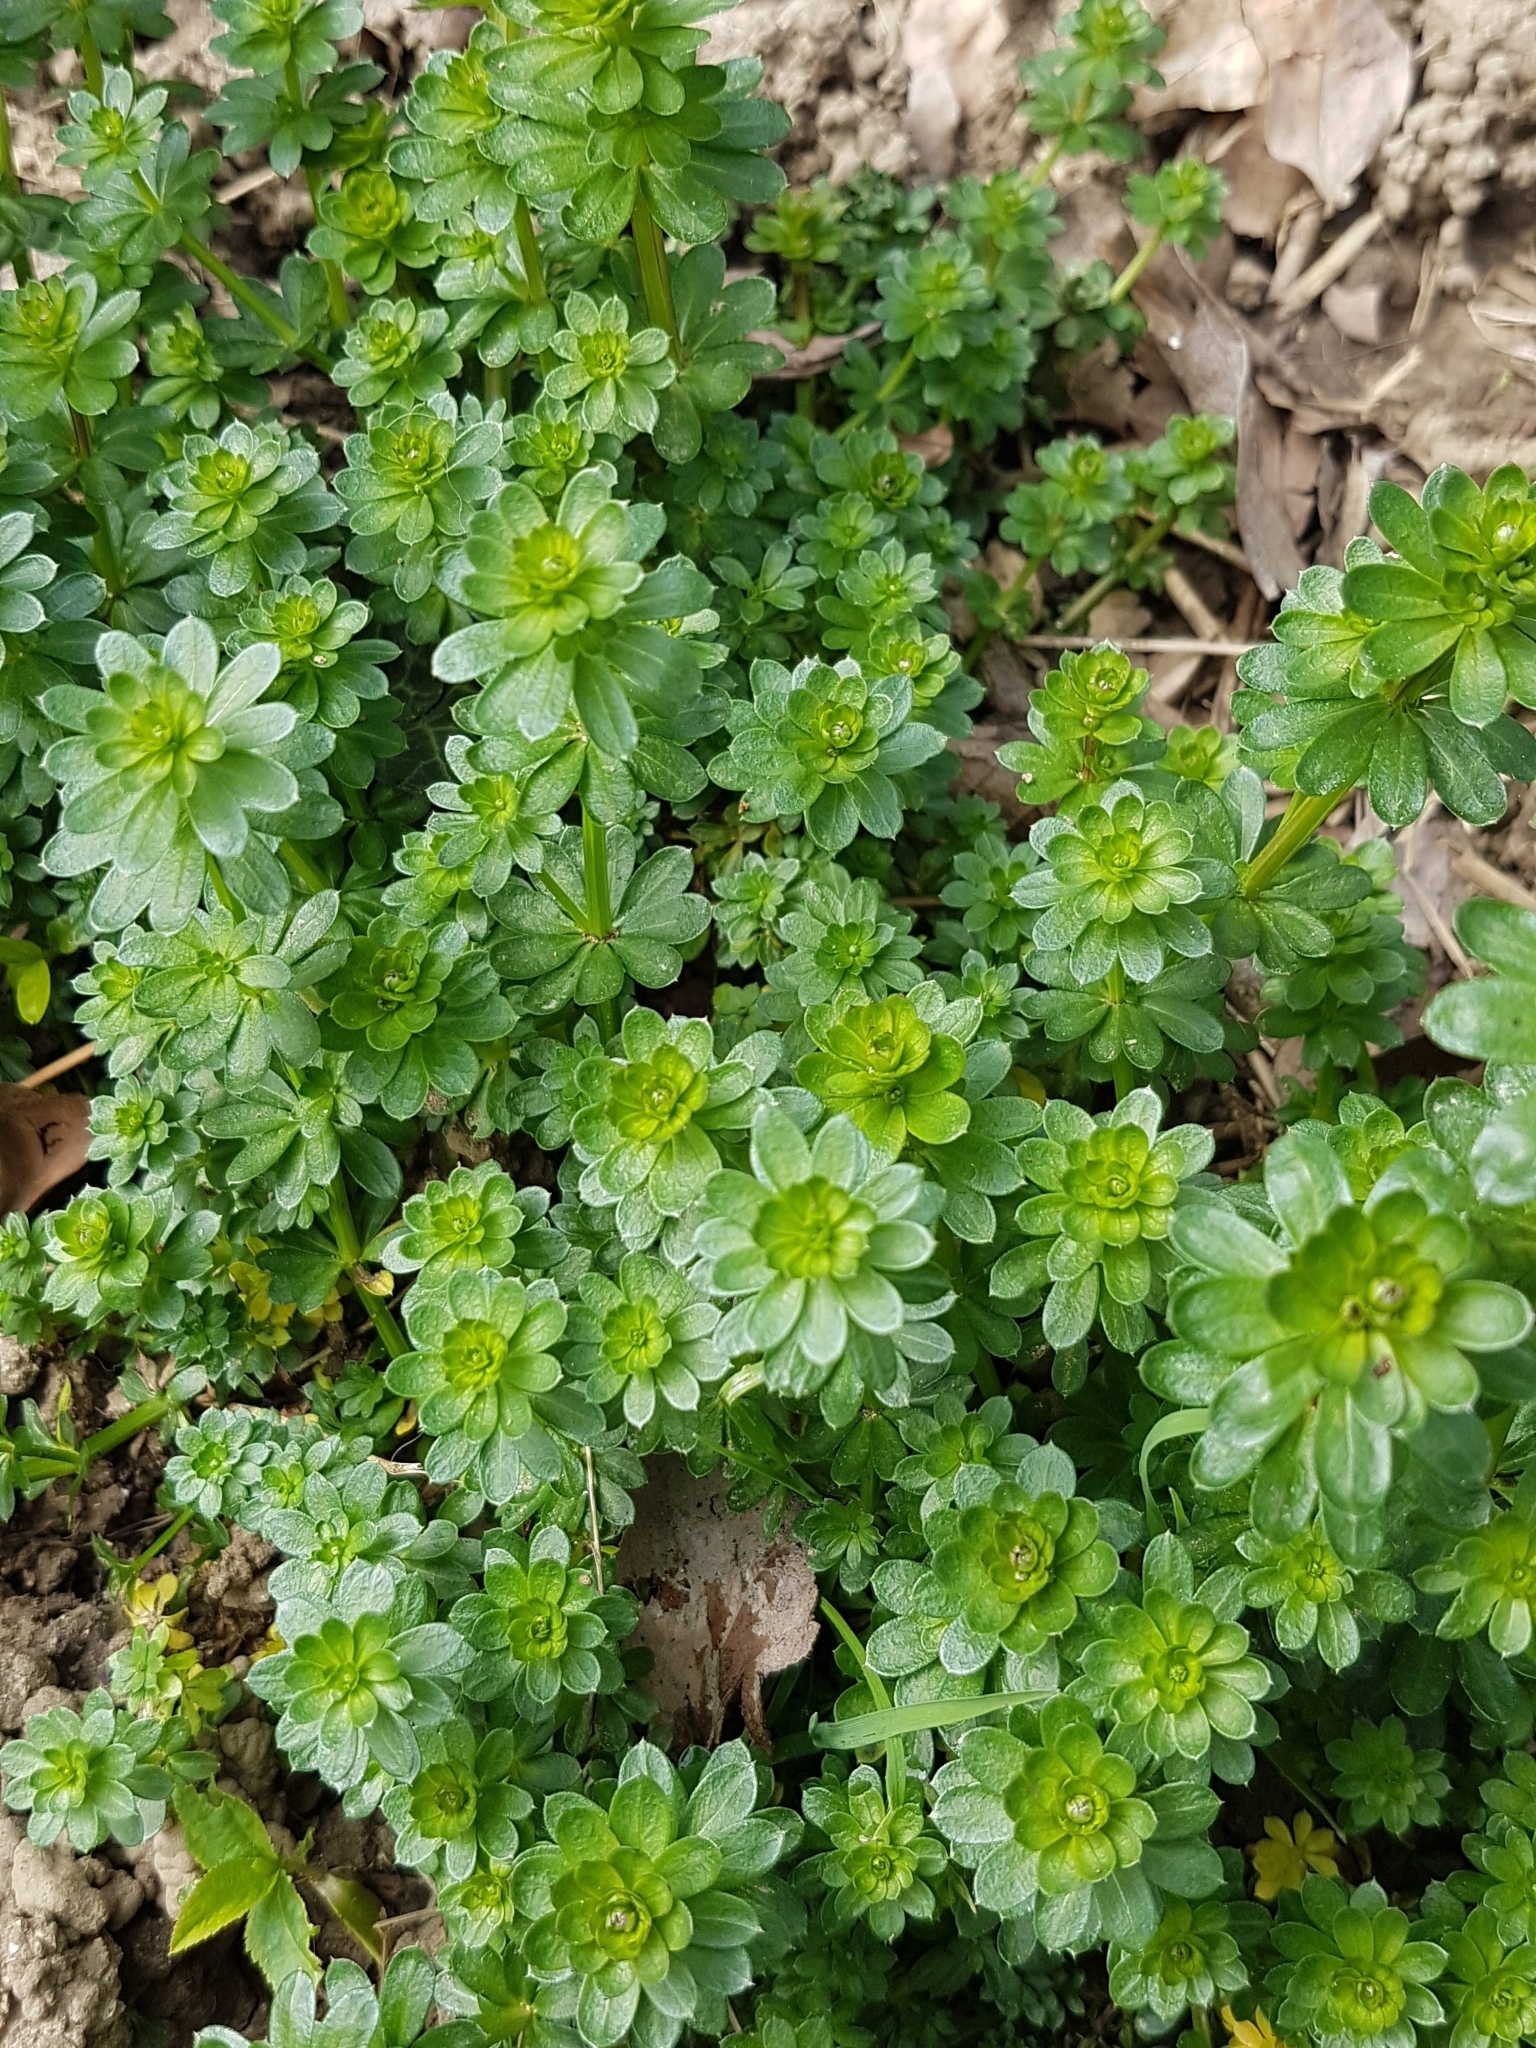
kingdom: Plantae
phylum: Tracheophyta
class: Magnoliopsida
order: Gentianales
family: Rubiaceae
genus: Galium
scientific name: Galium mollugo
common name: Hedge bedstraw
